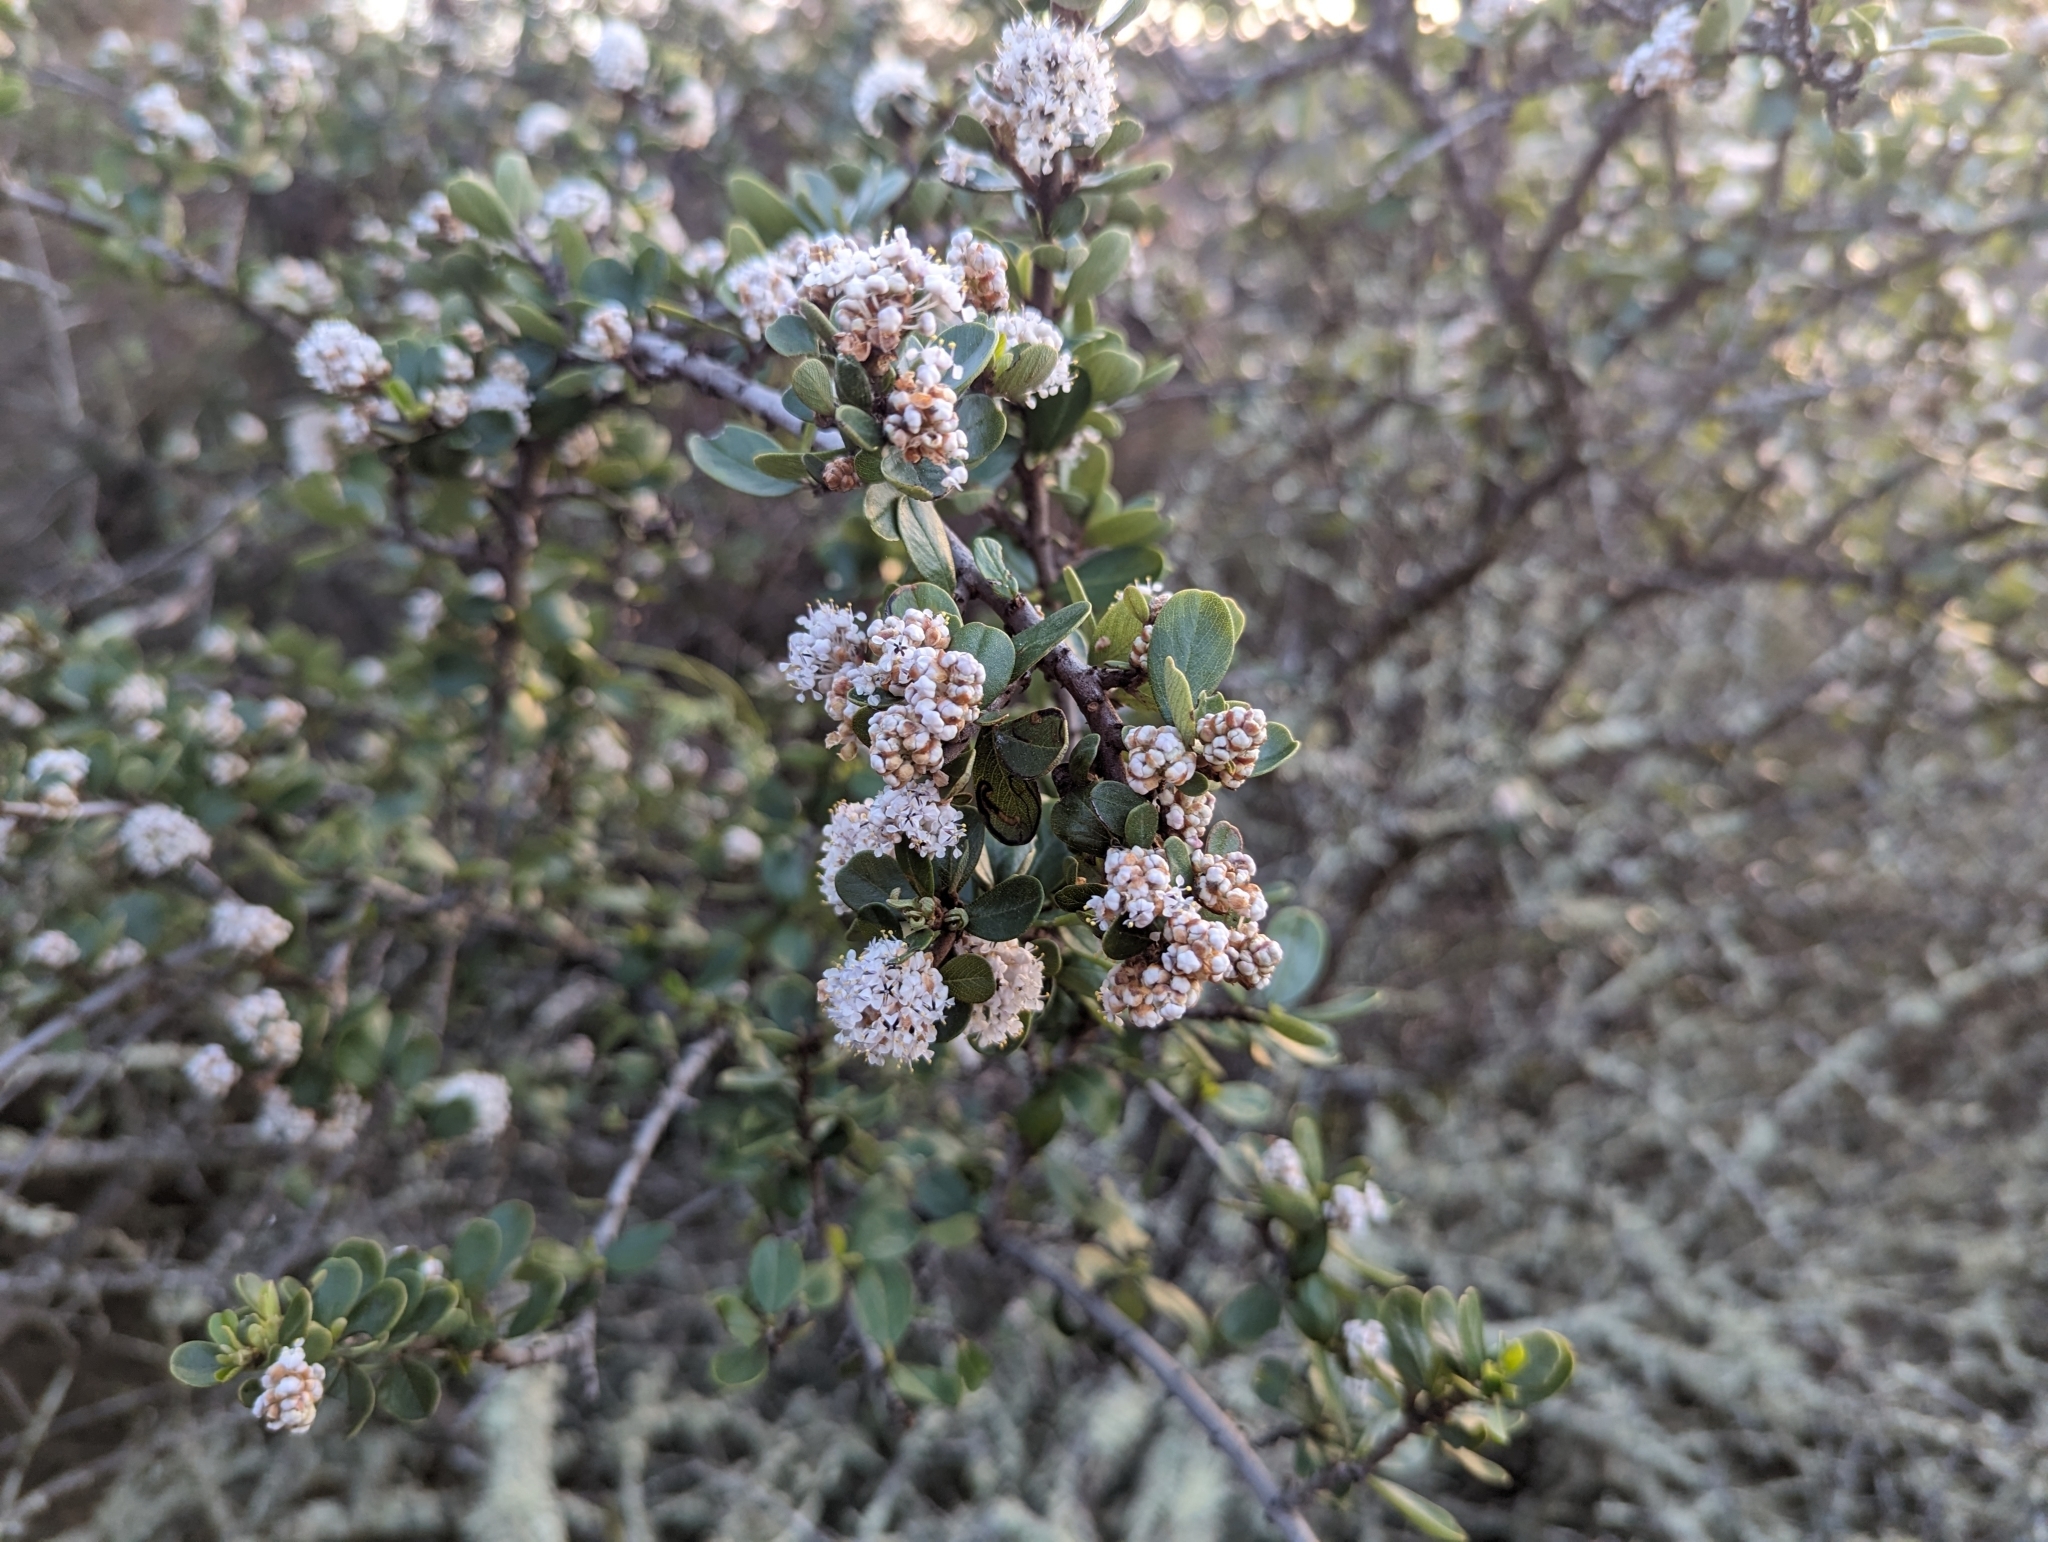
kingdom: Plantae
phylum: Tracheophyta
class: Magnoliopsida
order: Rosales
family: Rhamnaceae
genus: Ceanothus
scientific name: Ceanothus cuneatus
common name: Cuneate ceanothus
